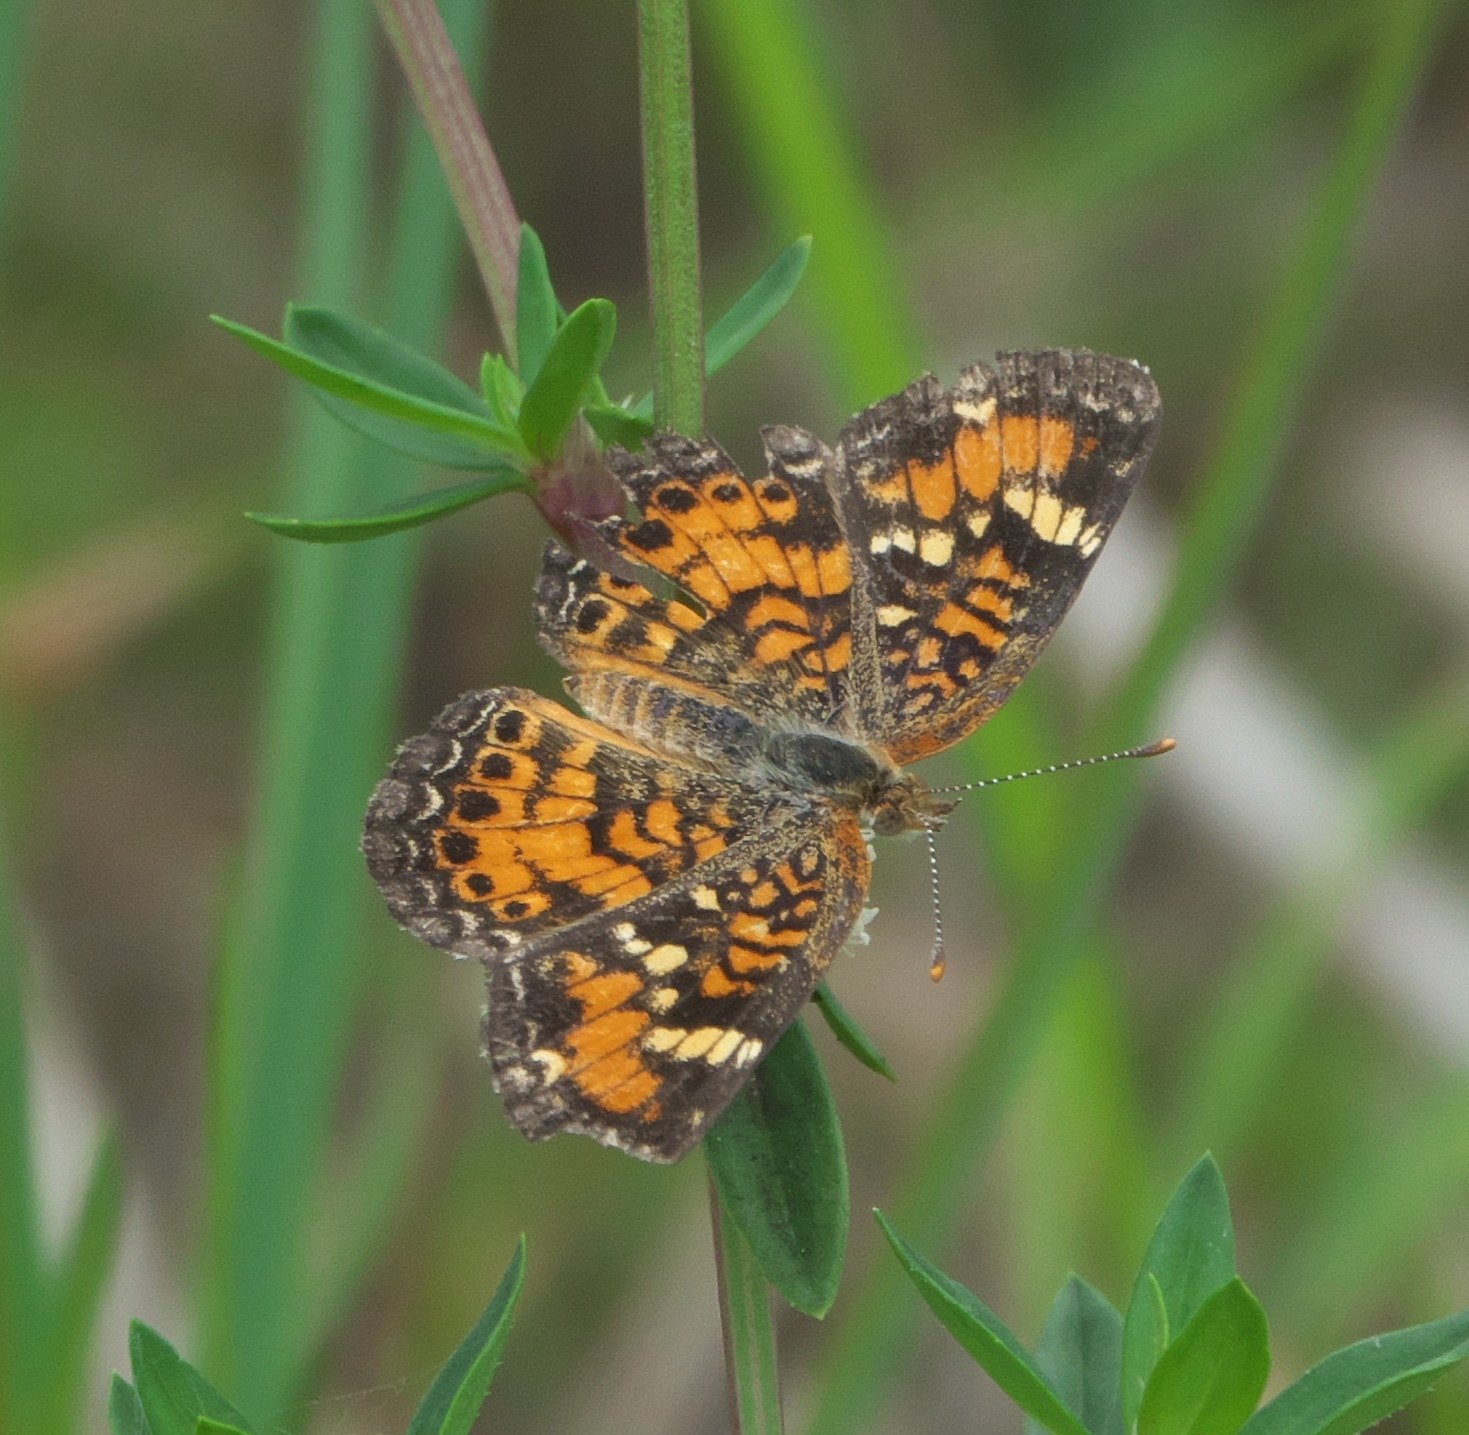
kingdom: Animalia
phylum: Arthropoda
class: Insecta
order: Lepidoptera
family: Nymphalidae
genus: Phyciodes
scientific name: Phyciodes phaon
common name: Phaon crescent
